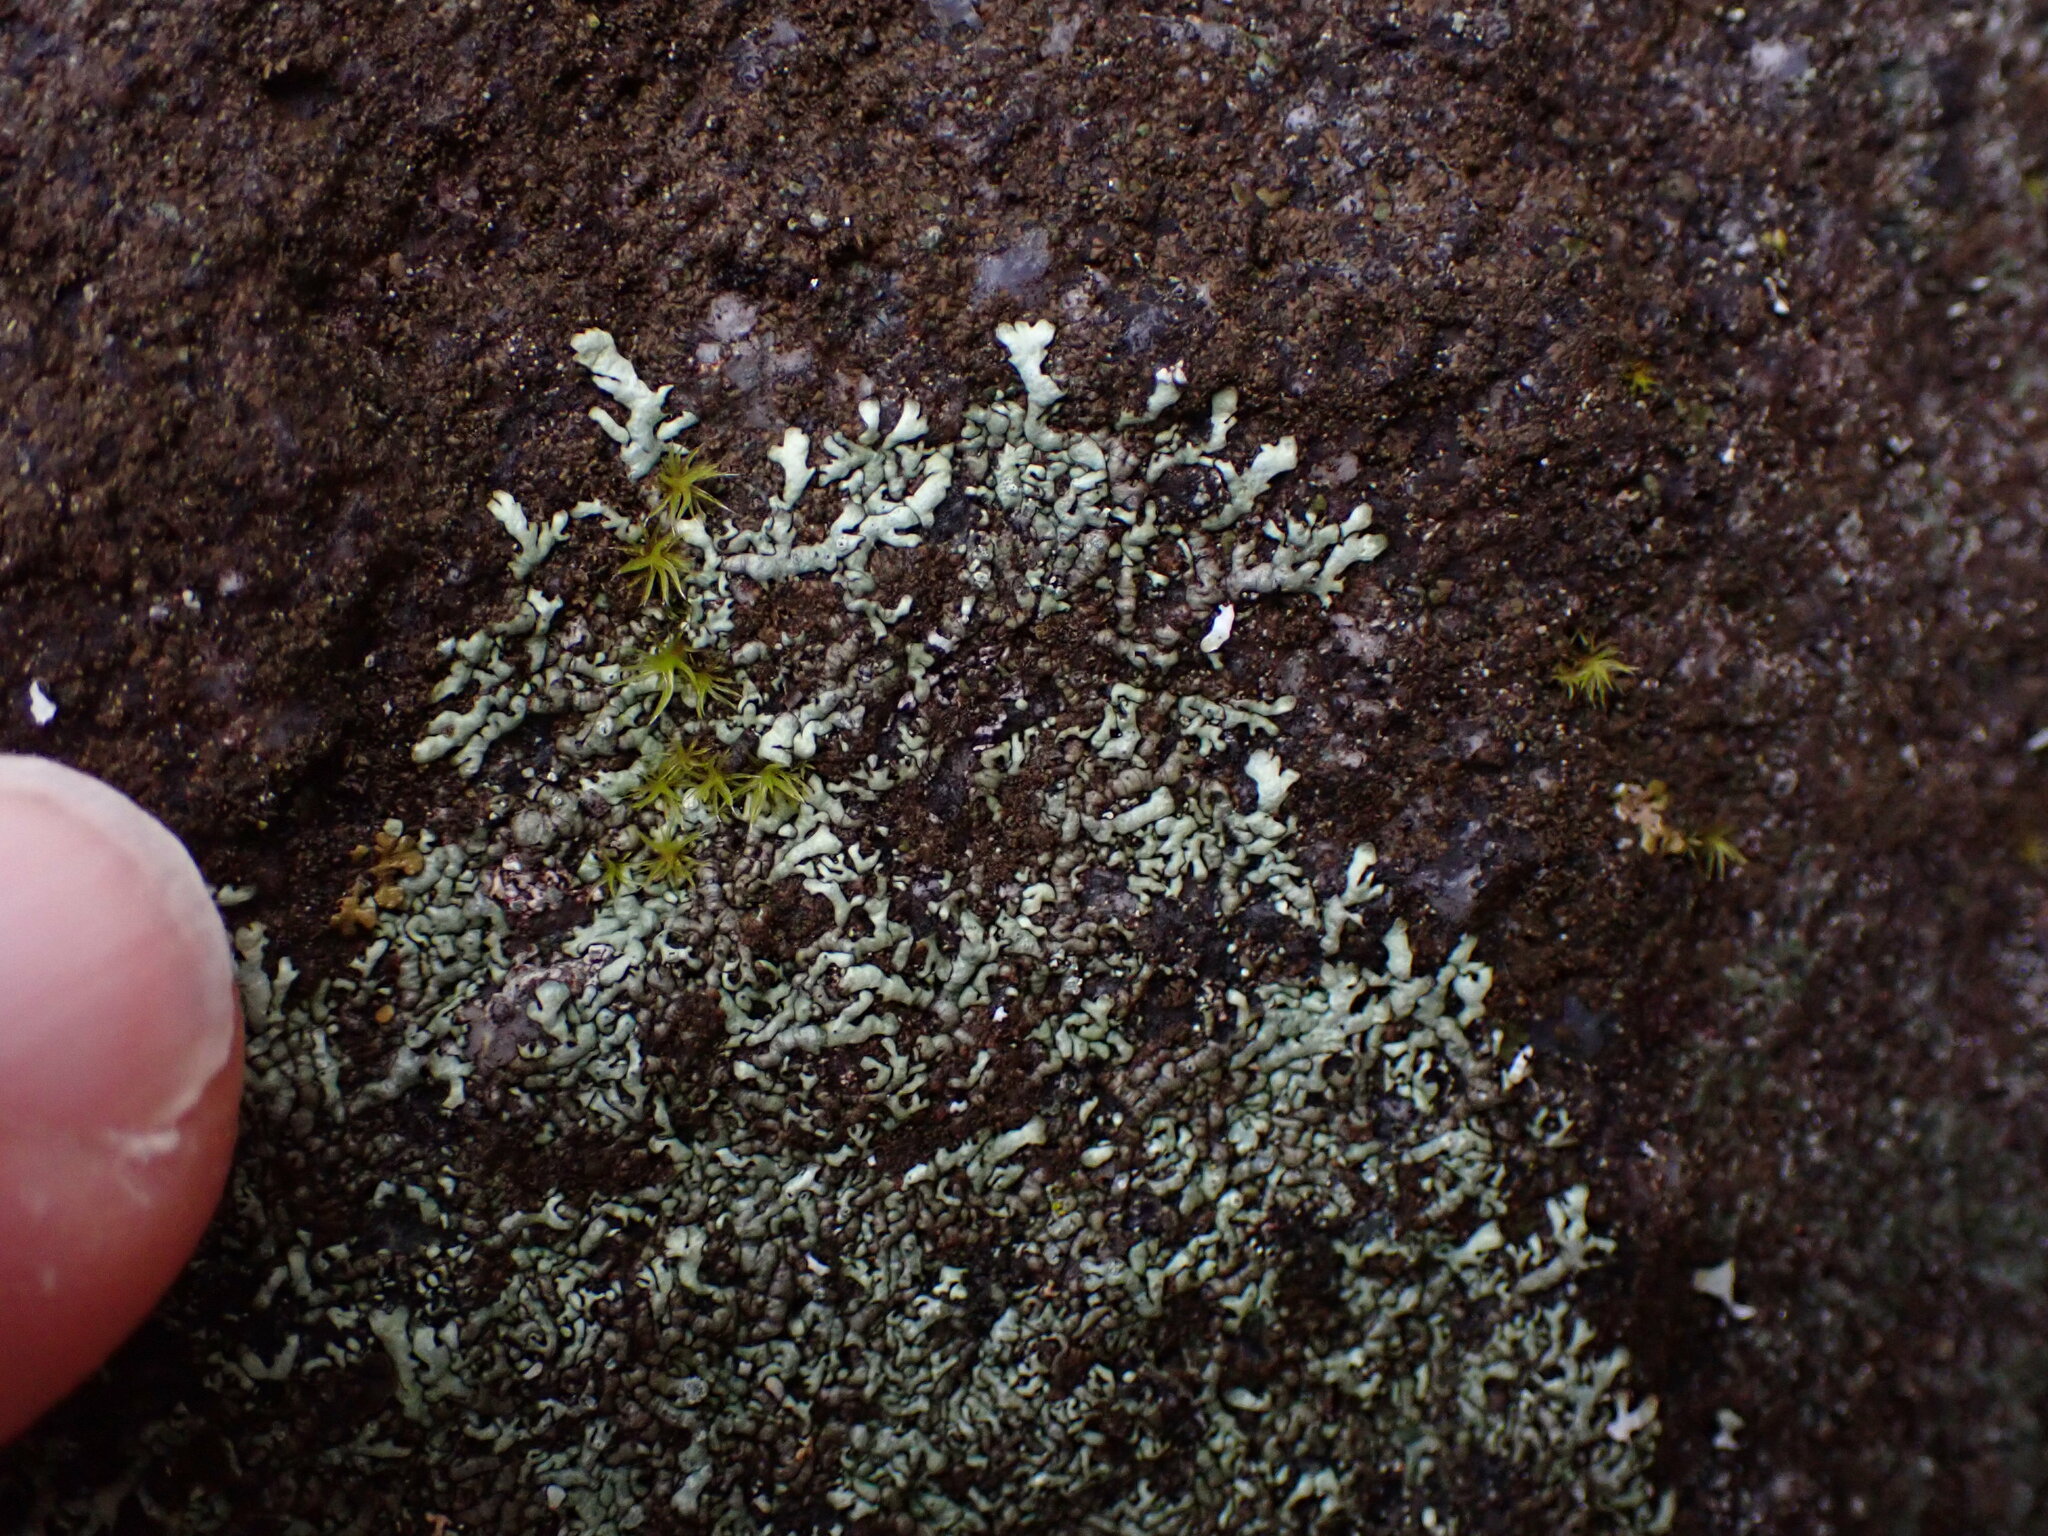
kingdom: Fungi
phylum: Ascomycota
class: Lecanoromycetes
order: Lecanorales
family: Parmeliaceae
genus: Xanthoparmelia
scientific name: Xanthoparmelia mougeotii
